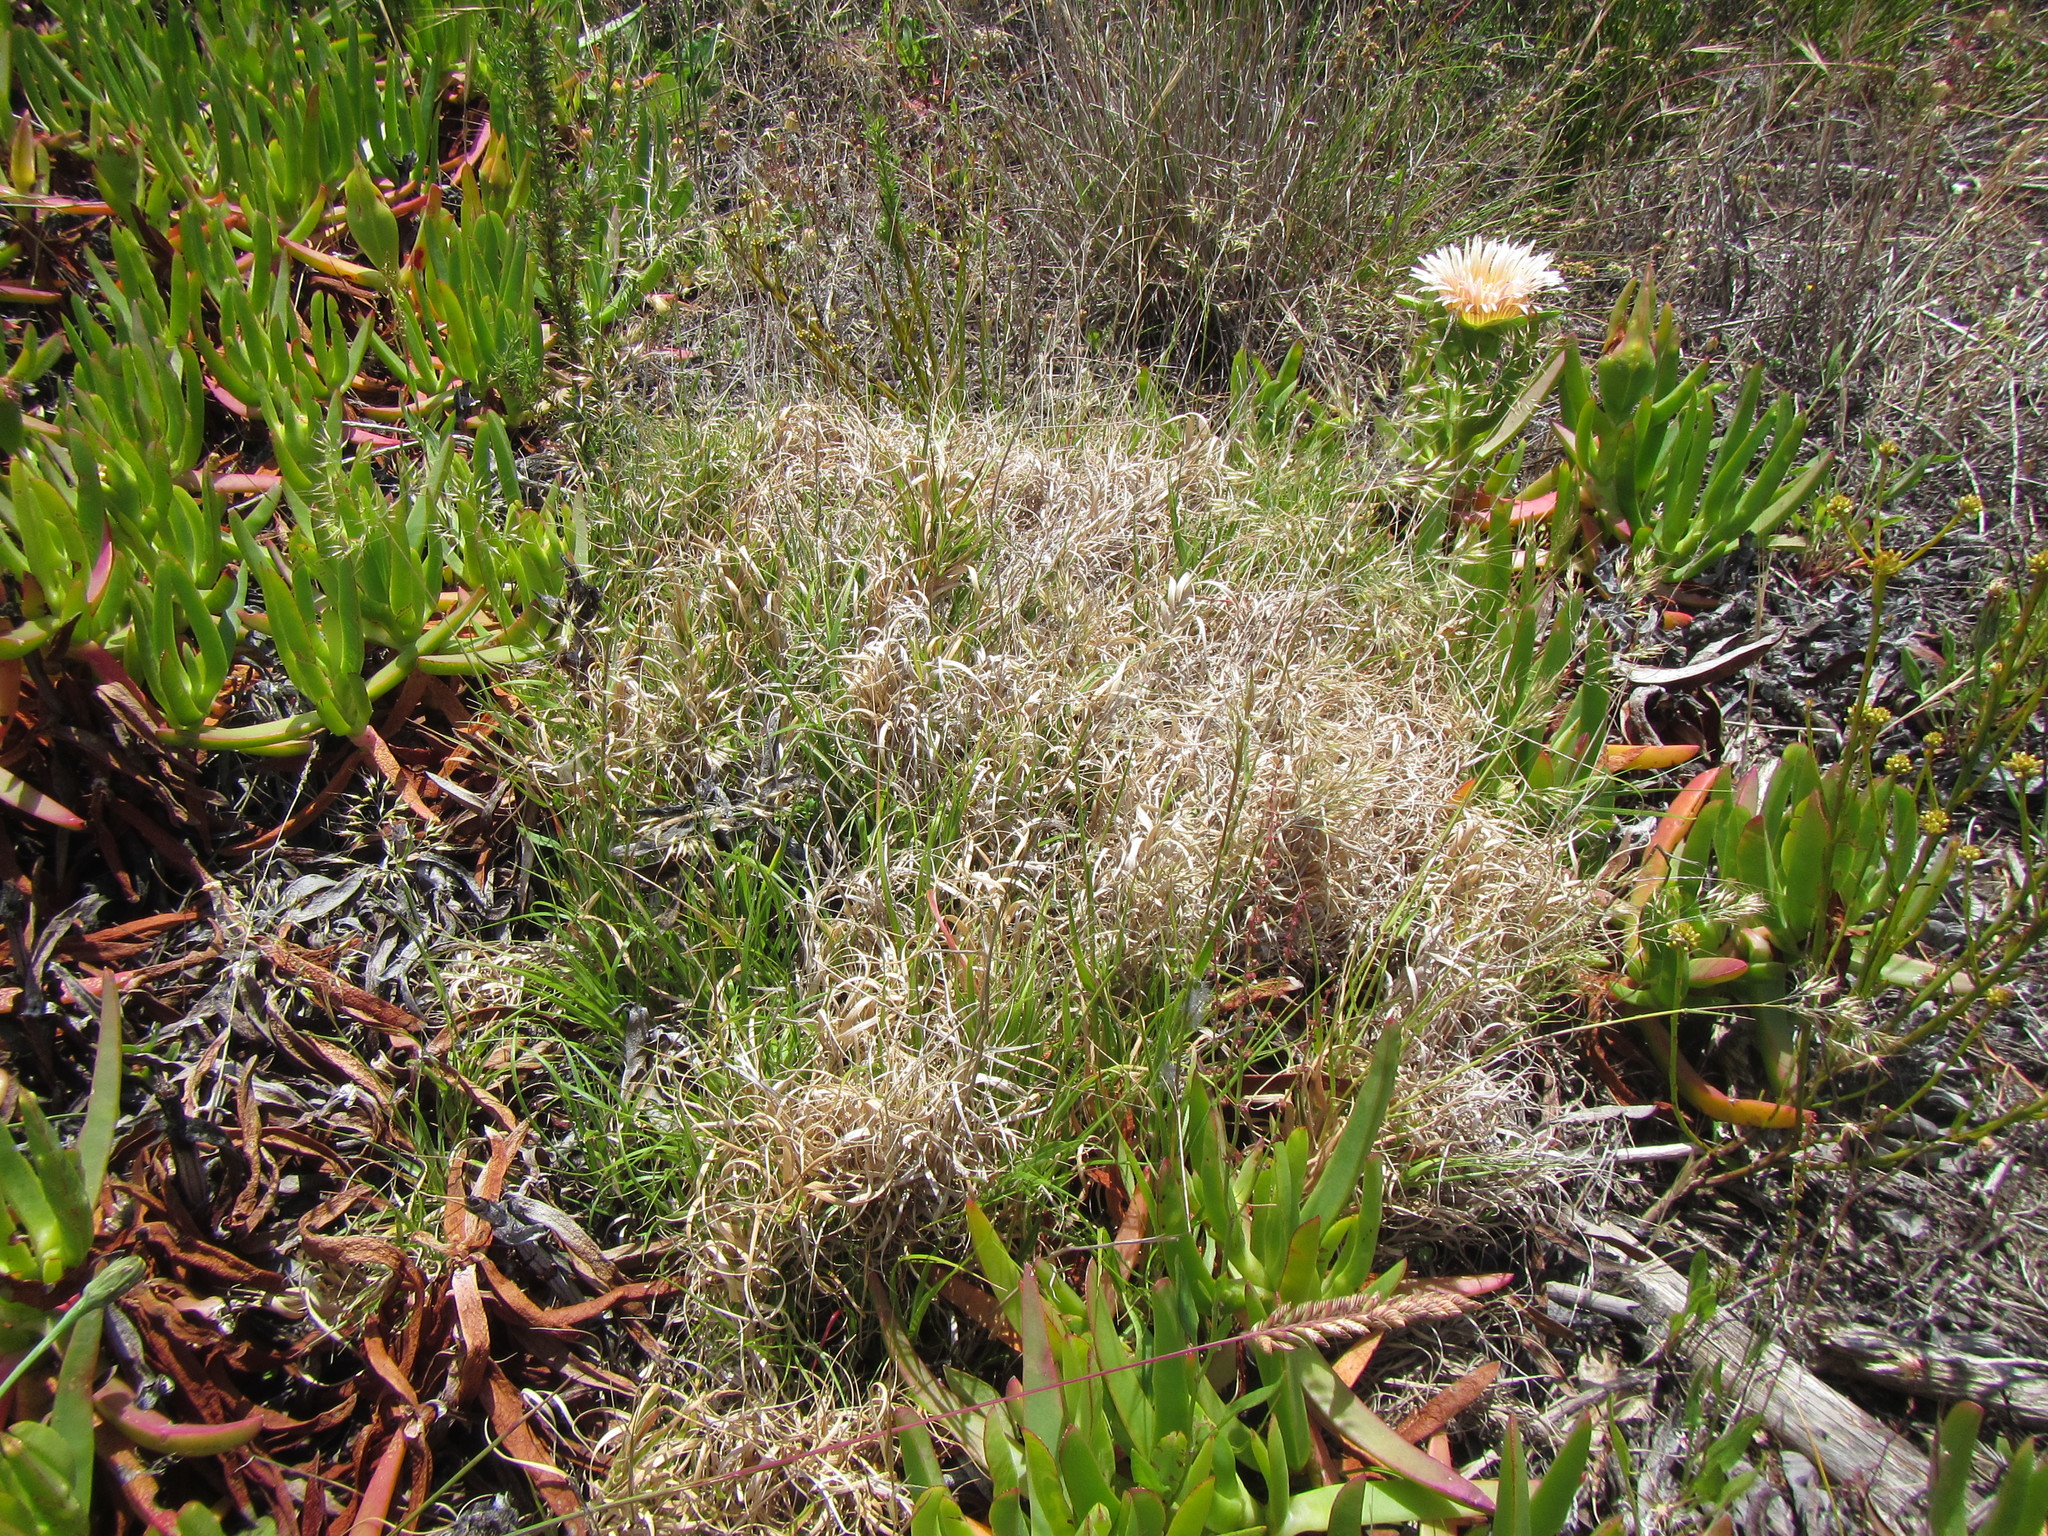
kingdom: Plantae
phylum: Tracheophyta
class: Liliopsida
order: Poales
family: Poaceae
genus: Pentameris
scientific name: Pentameris densifolia
